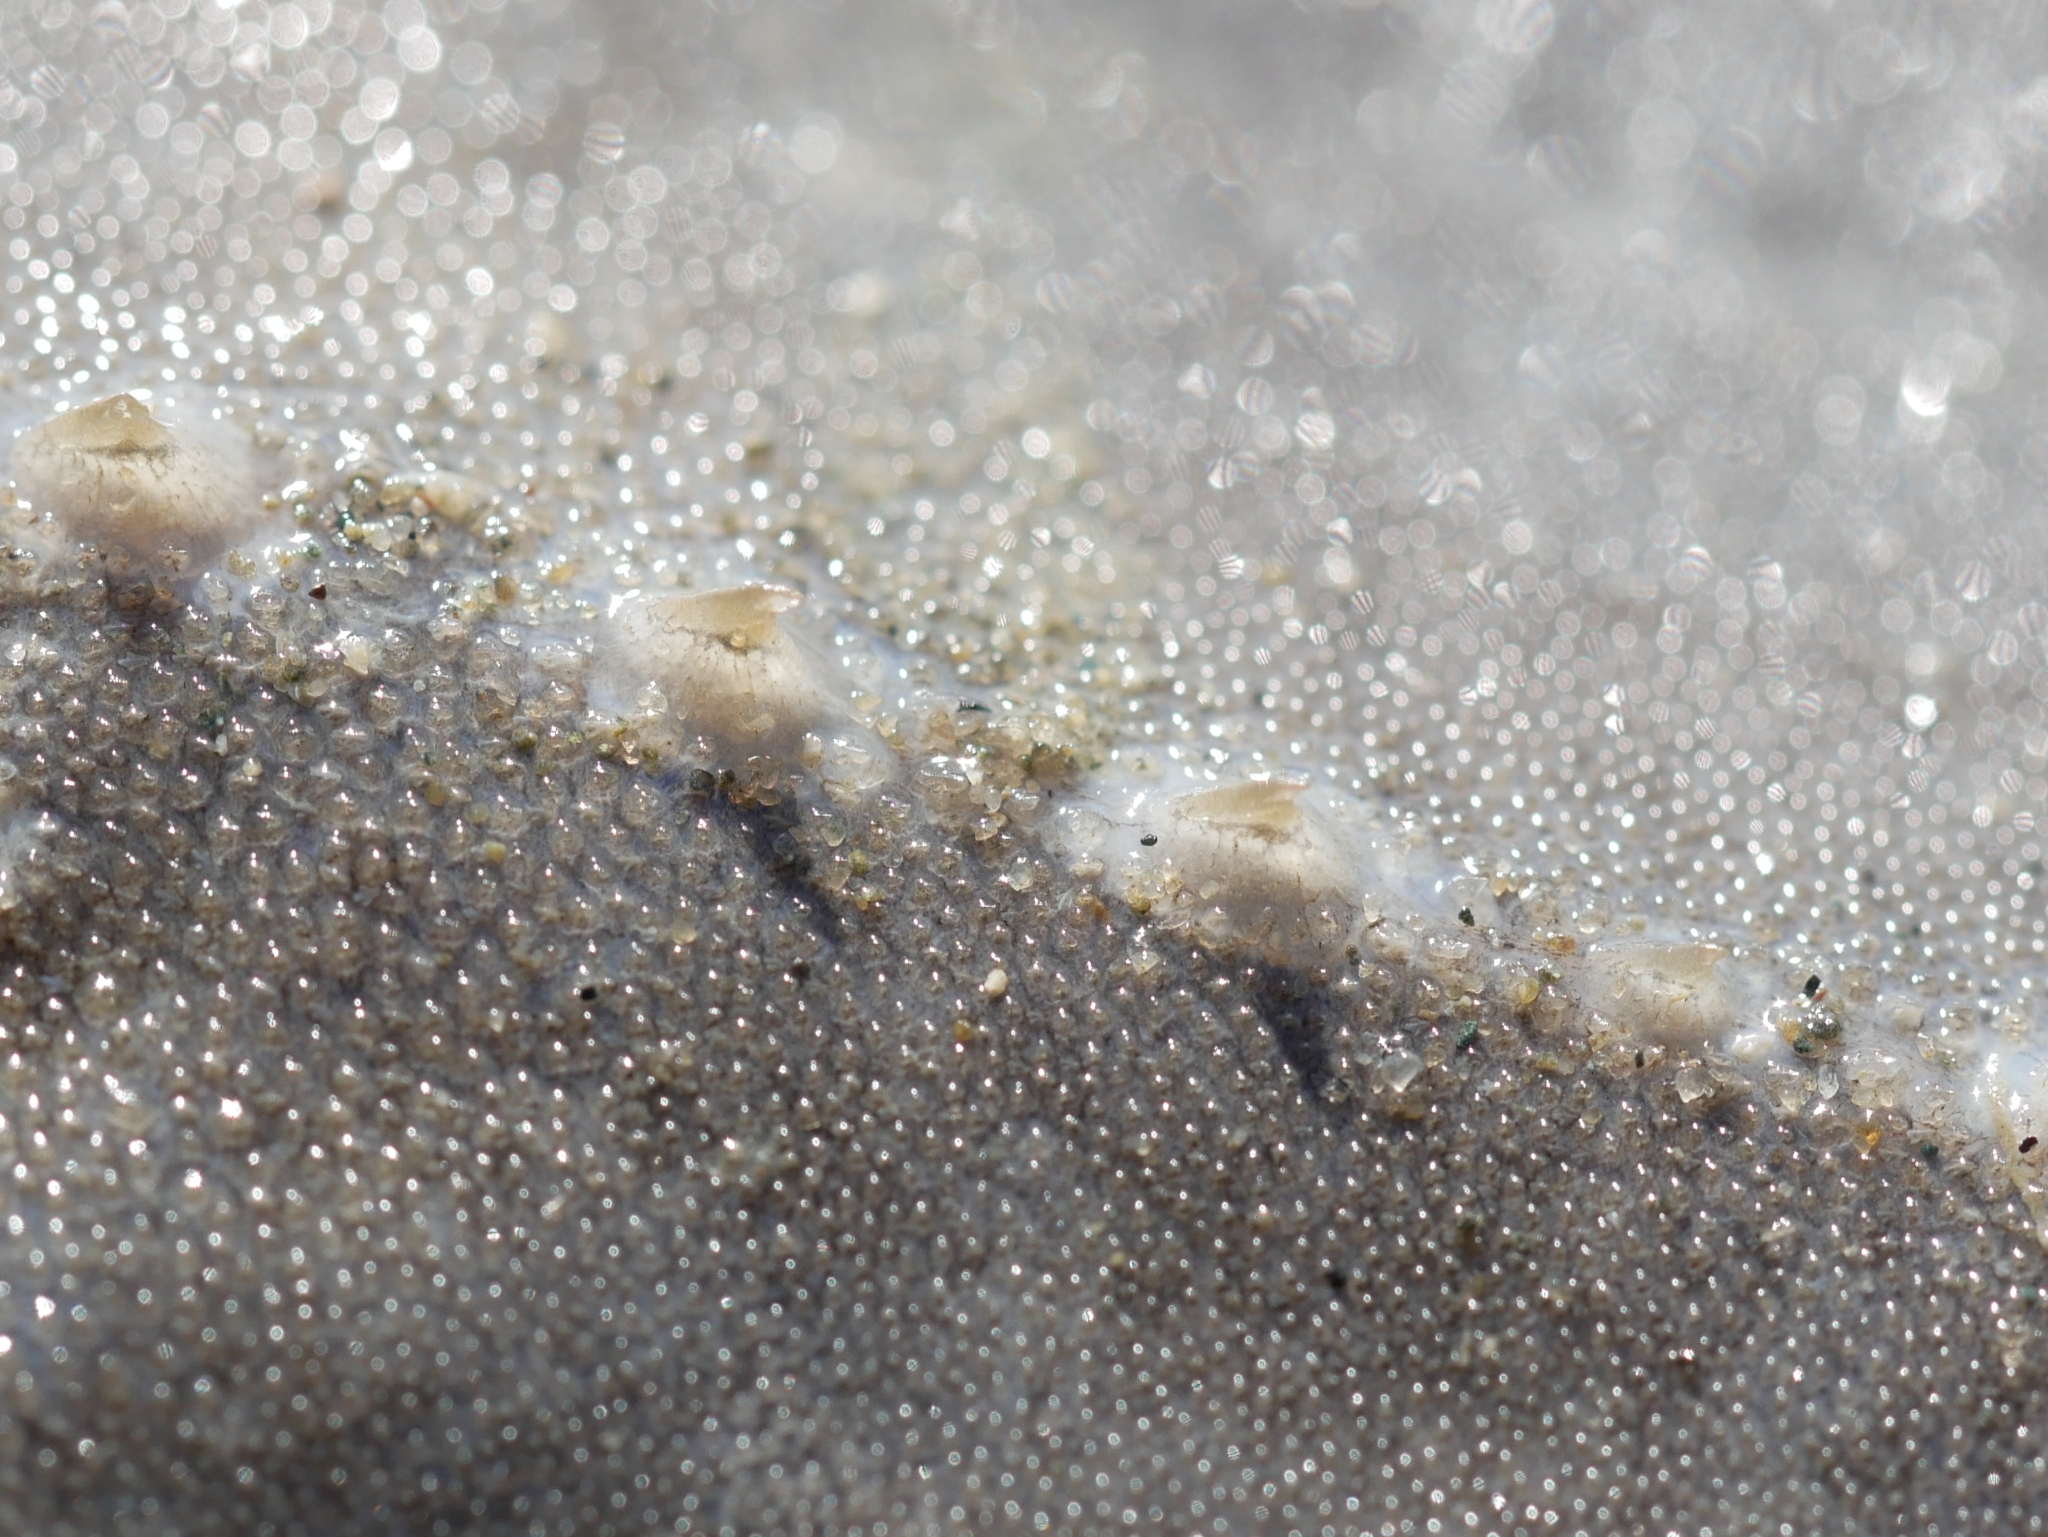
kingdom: Animalia
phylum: Chordata
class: Elasmobranchii
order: Rhinopristiformes
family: Rhinobatidae
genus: Pseudobatos
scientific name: Pseudobatos productus
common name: Shovelnose guitarfish
